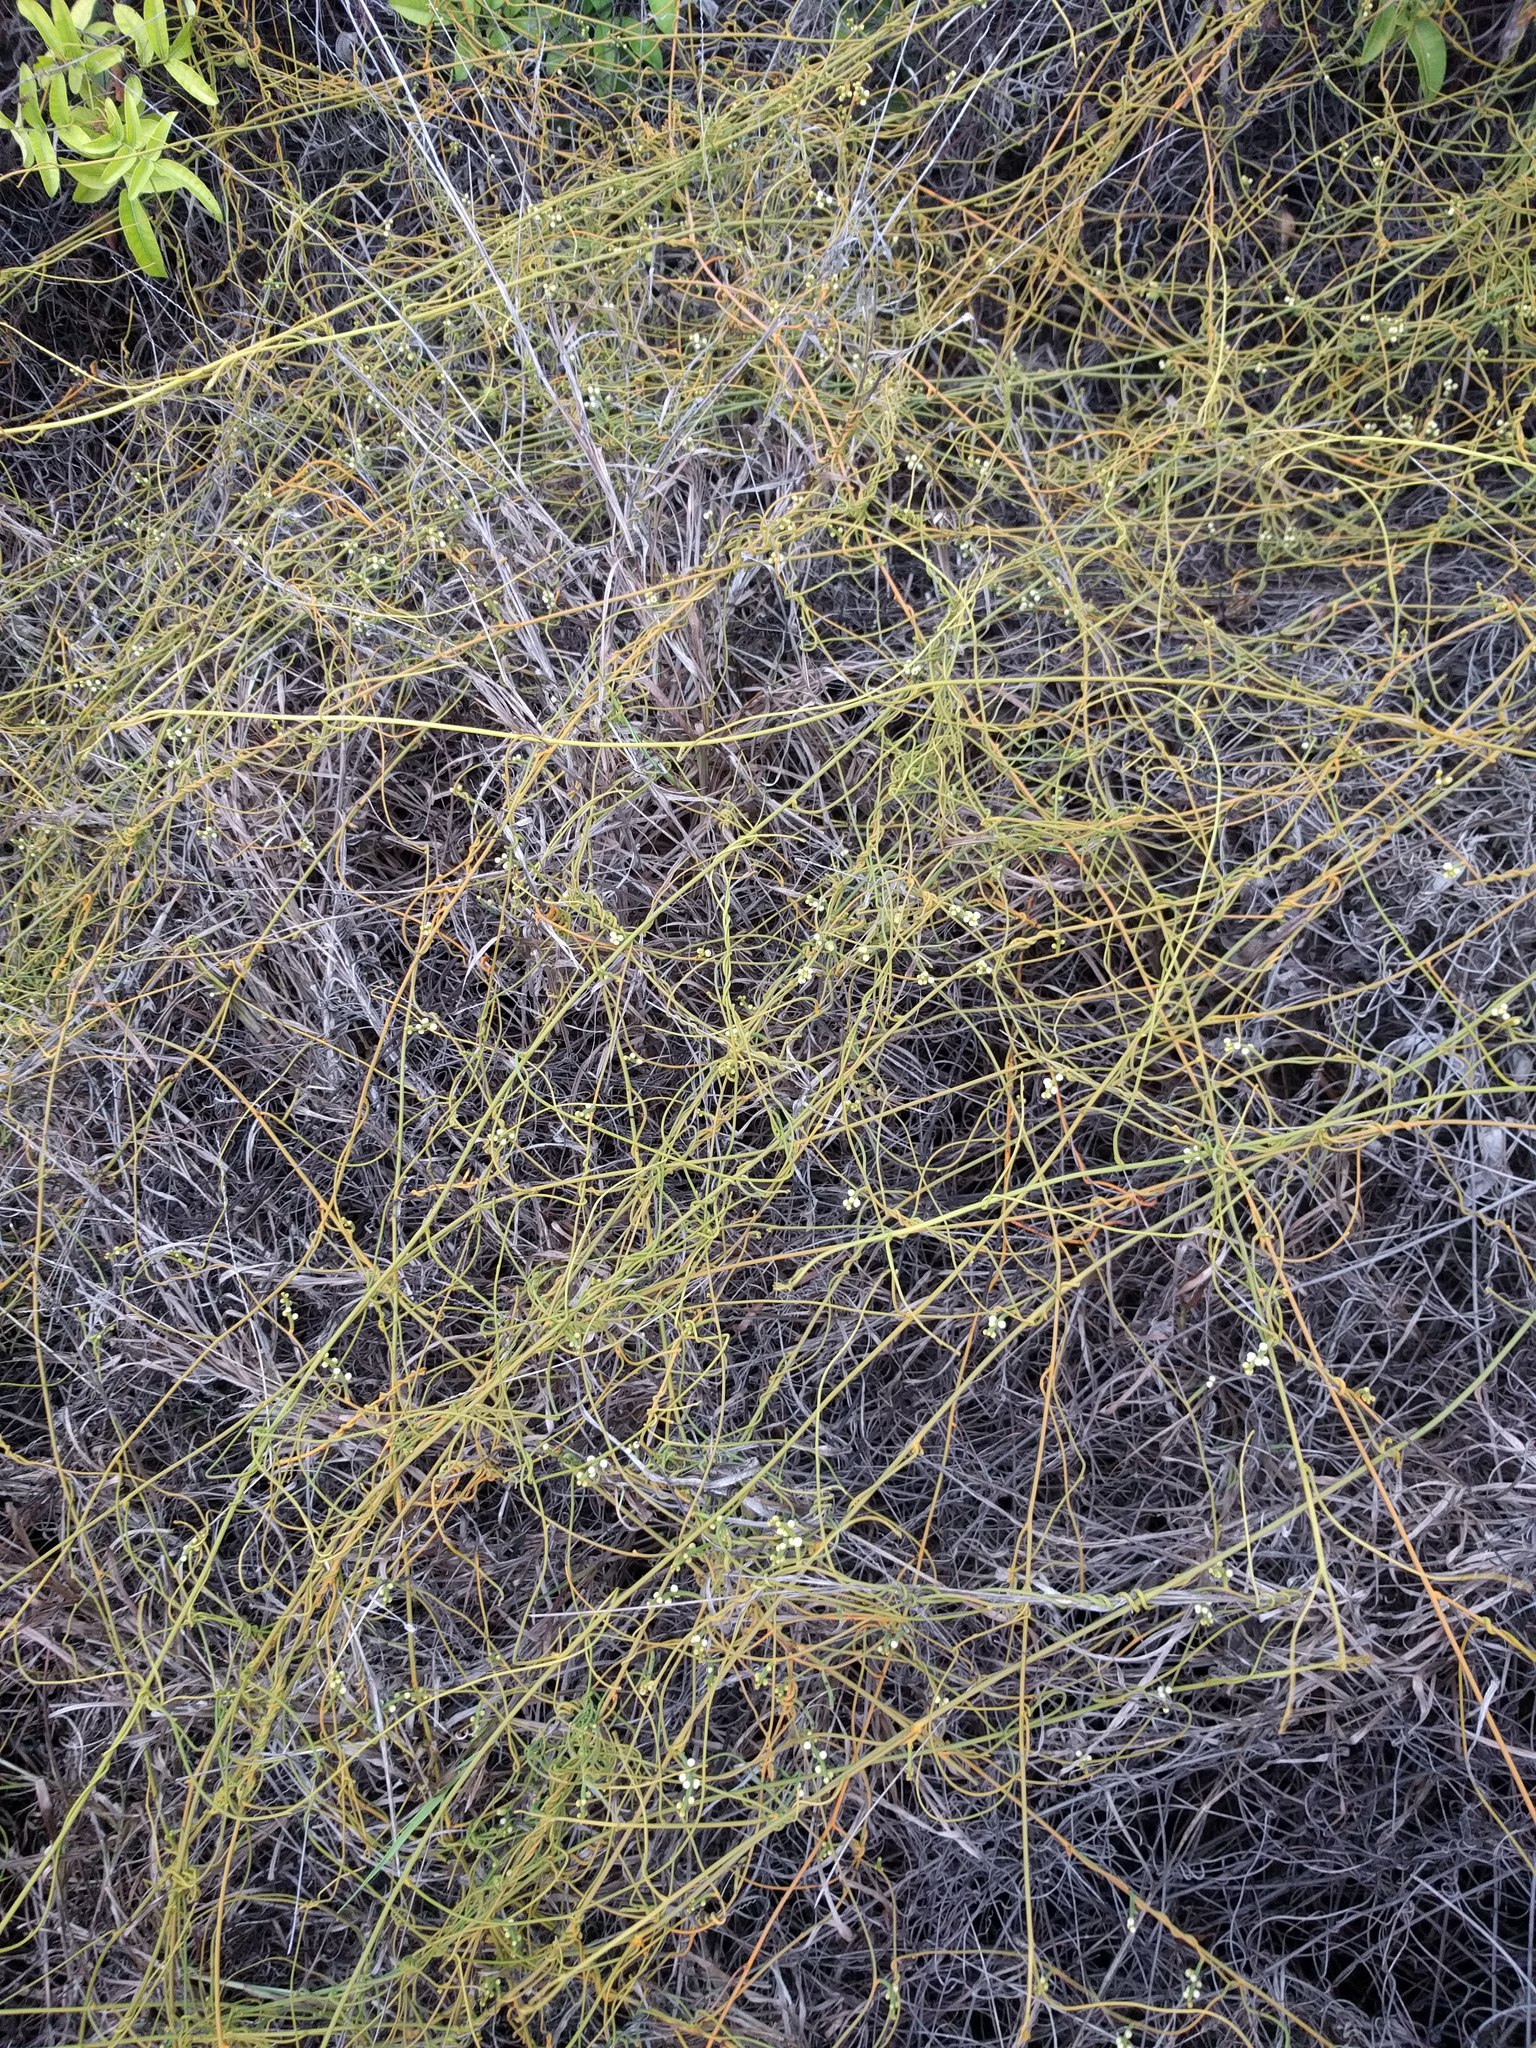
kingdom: Plantae
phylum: Tracheophyta
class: Magnoliopsida
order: Laurales
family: Lauraceae
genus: Cassytha
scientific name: Cassytha filiformis
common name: Dodder-laurel
